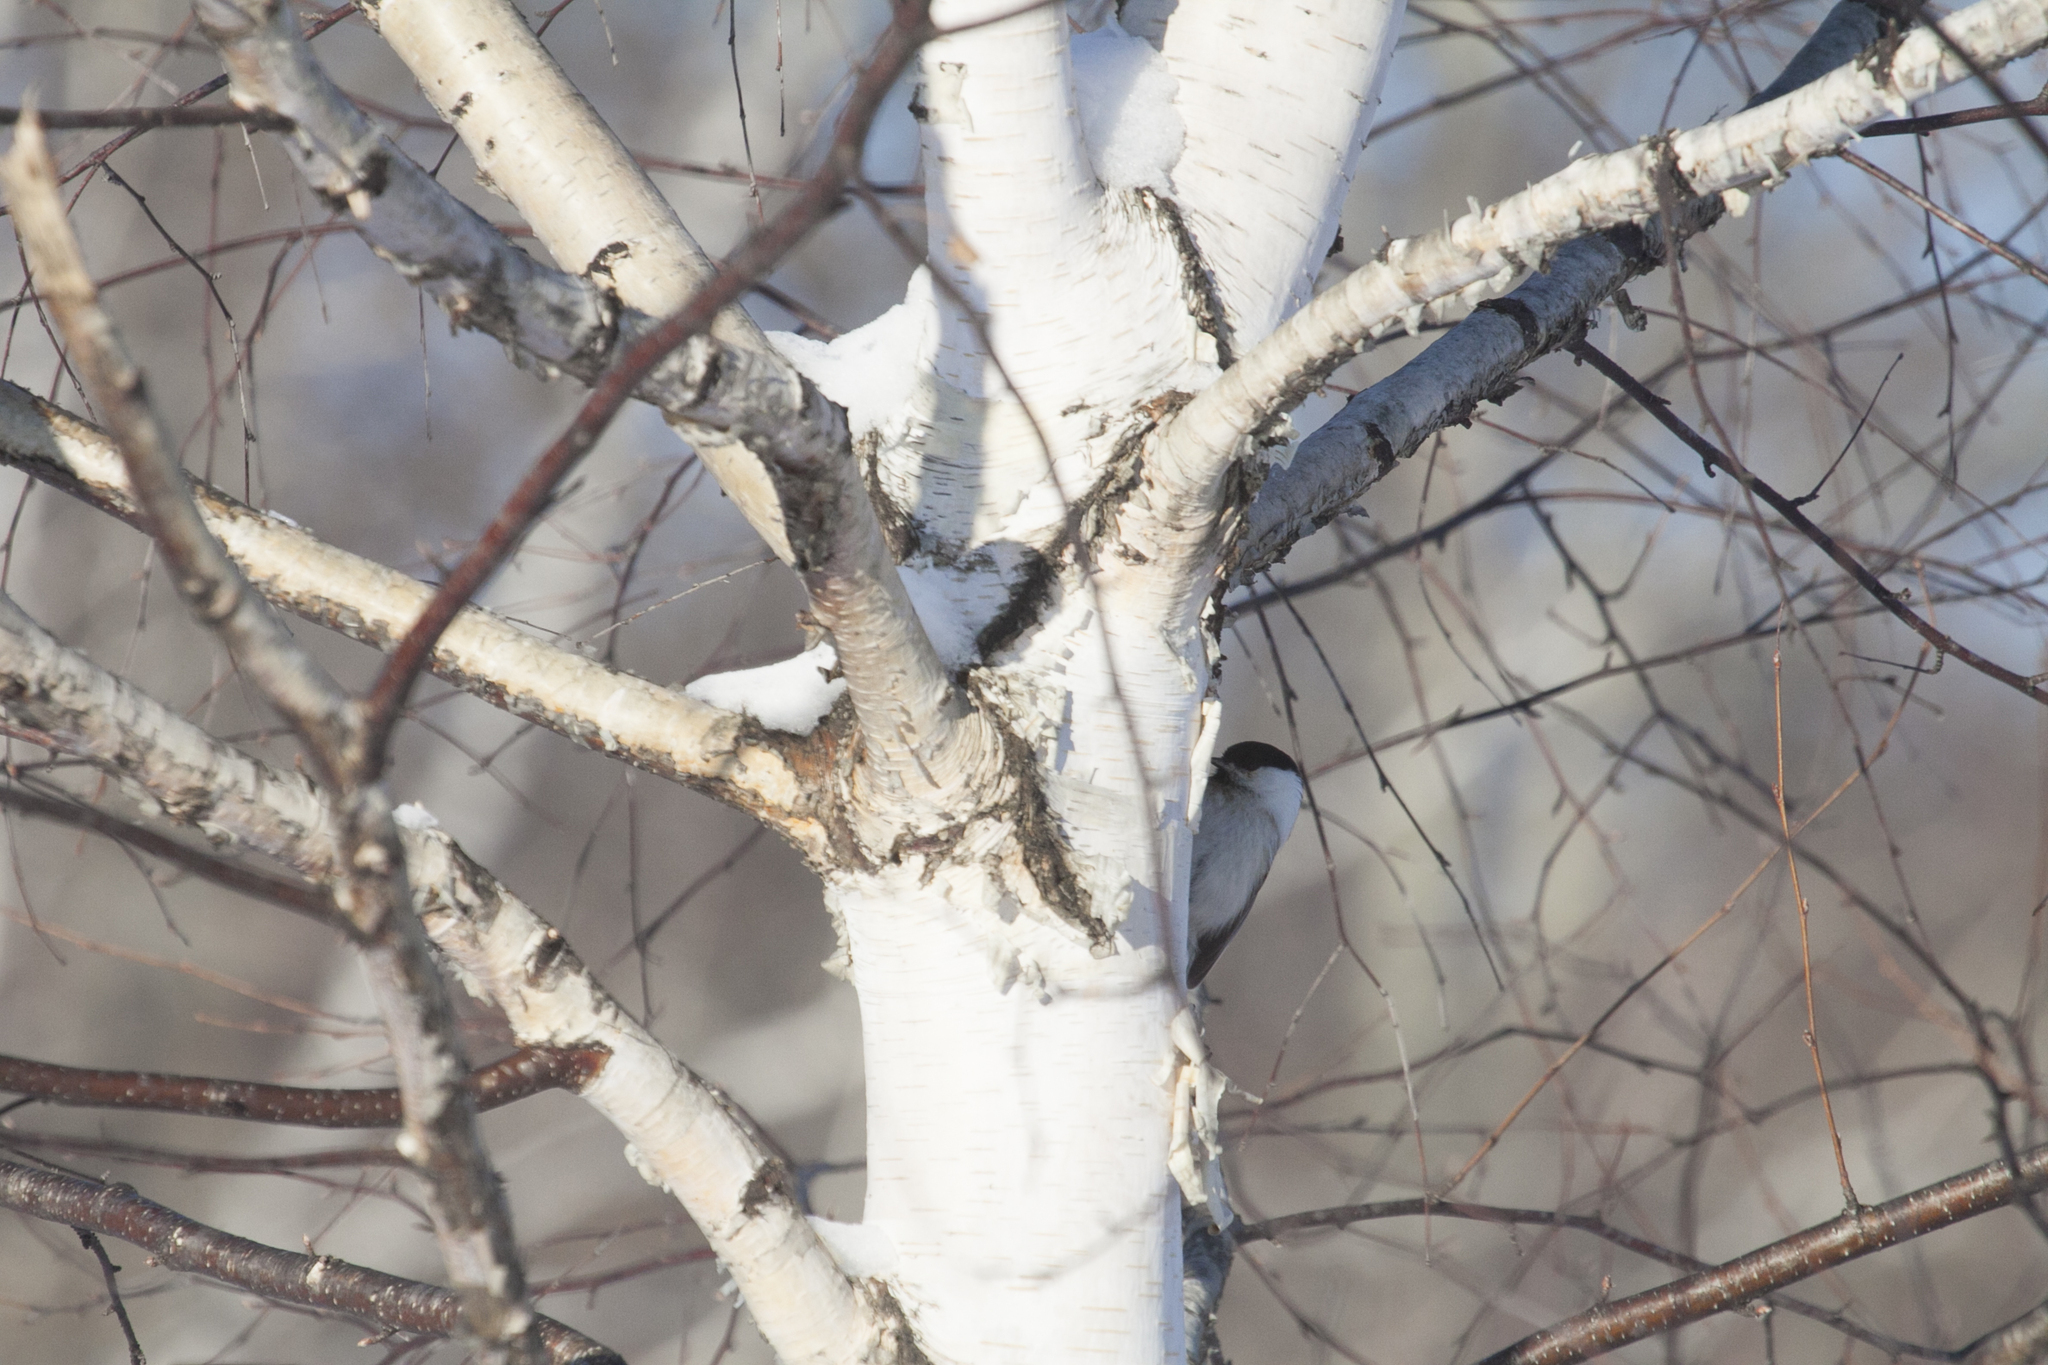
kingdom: Animalia
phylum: Chordata
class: Aves
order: Passeriformes
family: Paridae
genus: Poecile
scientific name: Poecile montanus
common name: Willow tit
